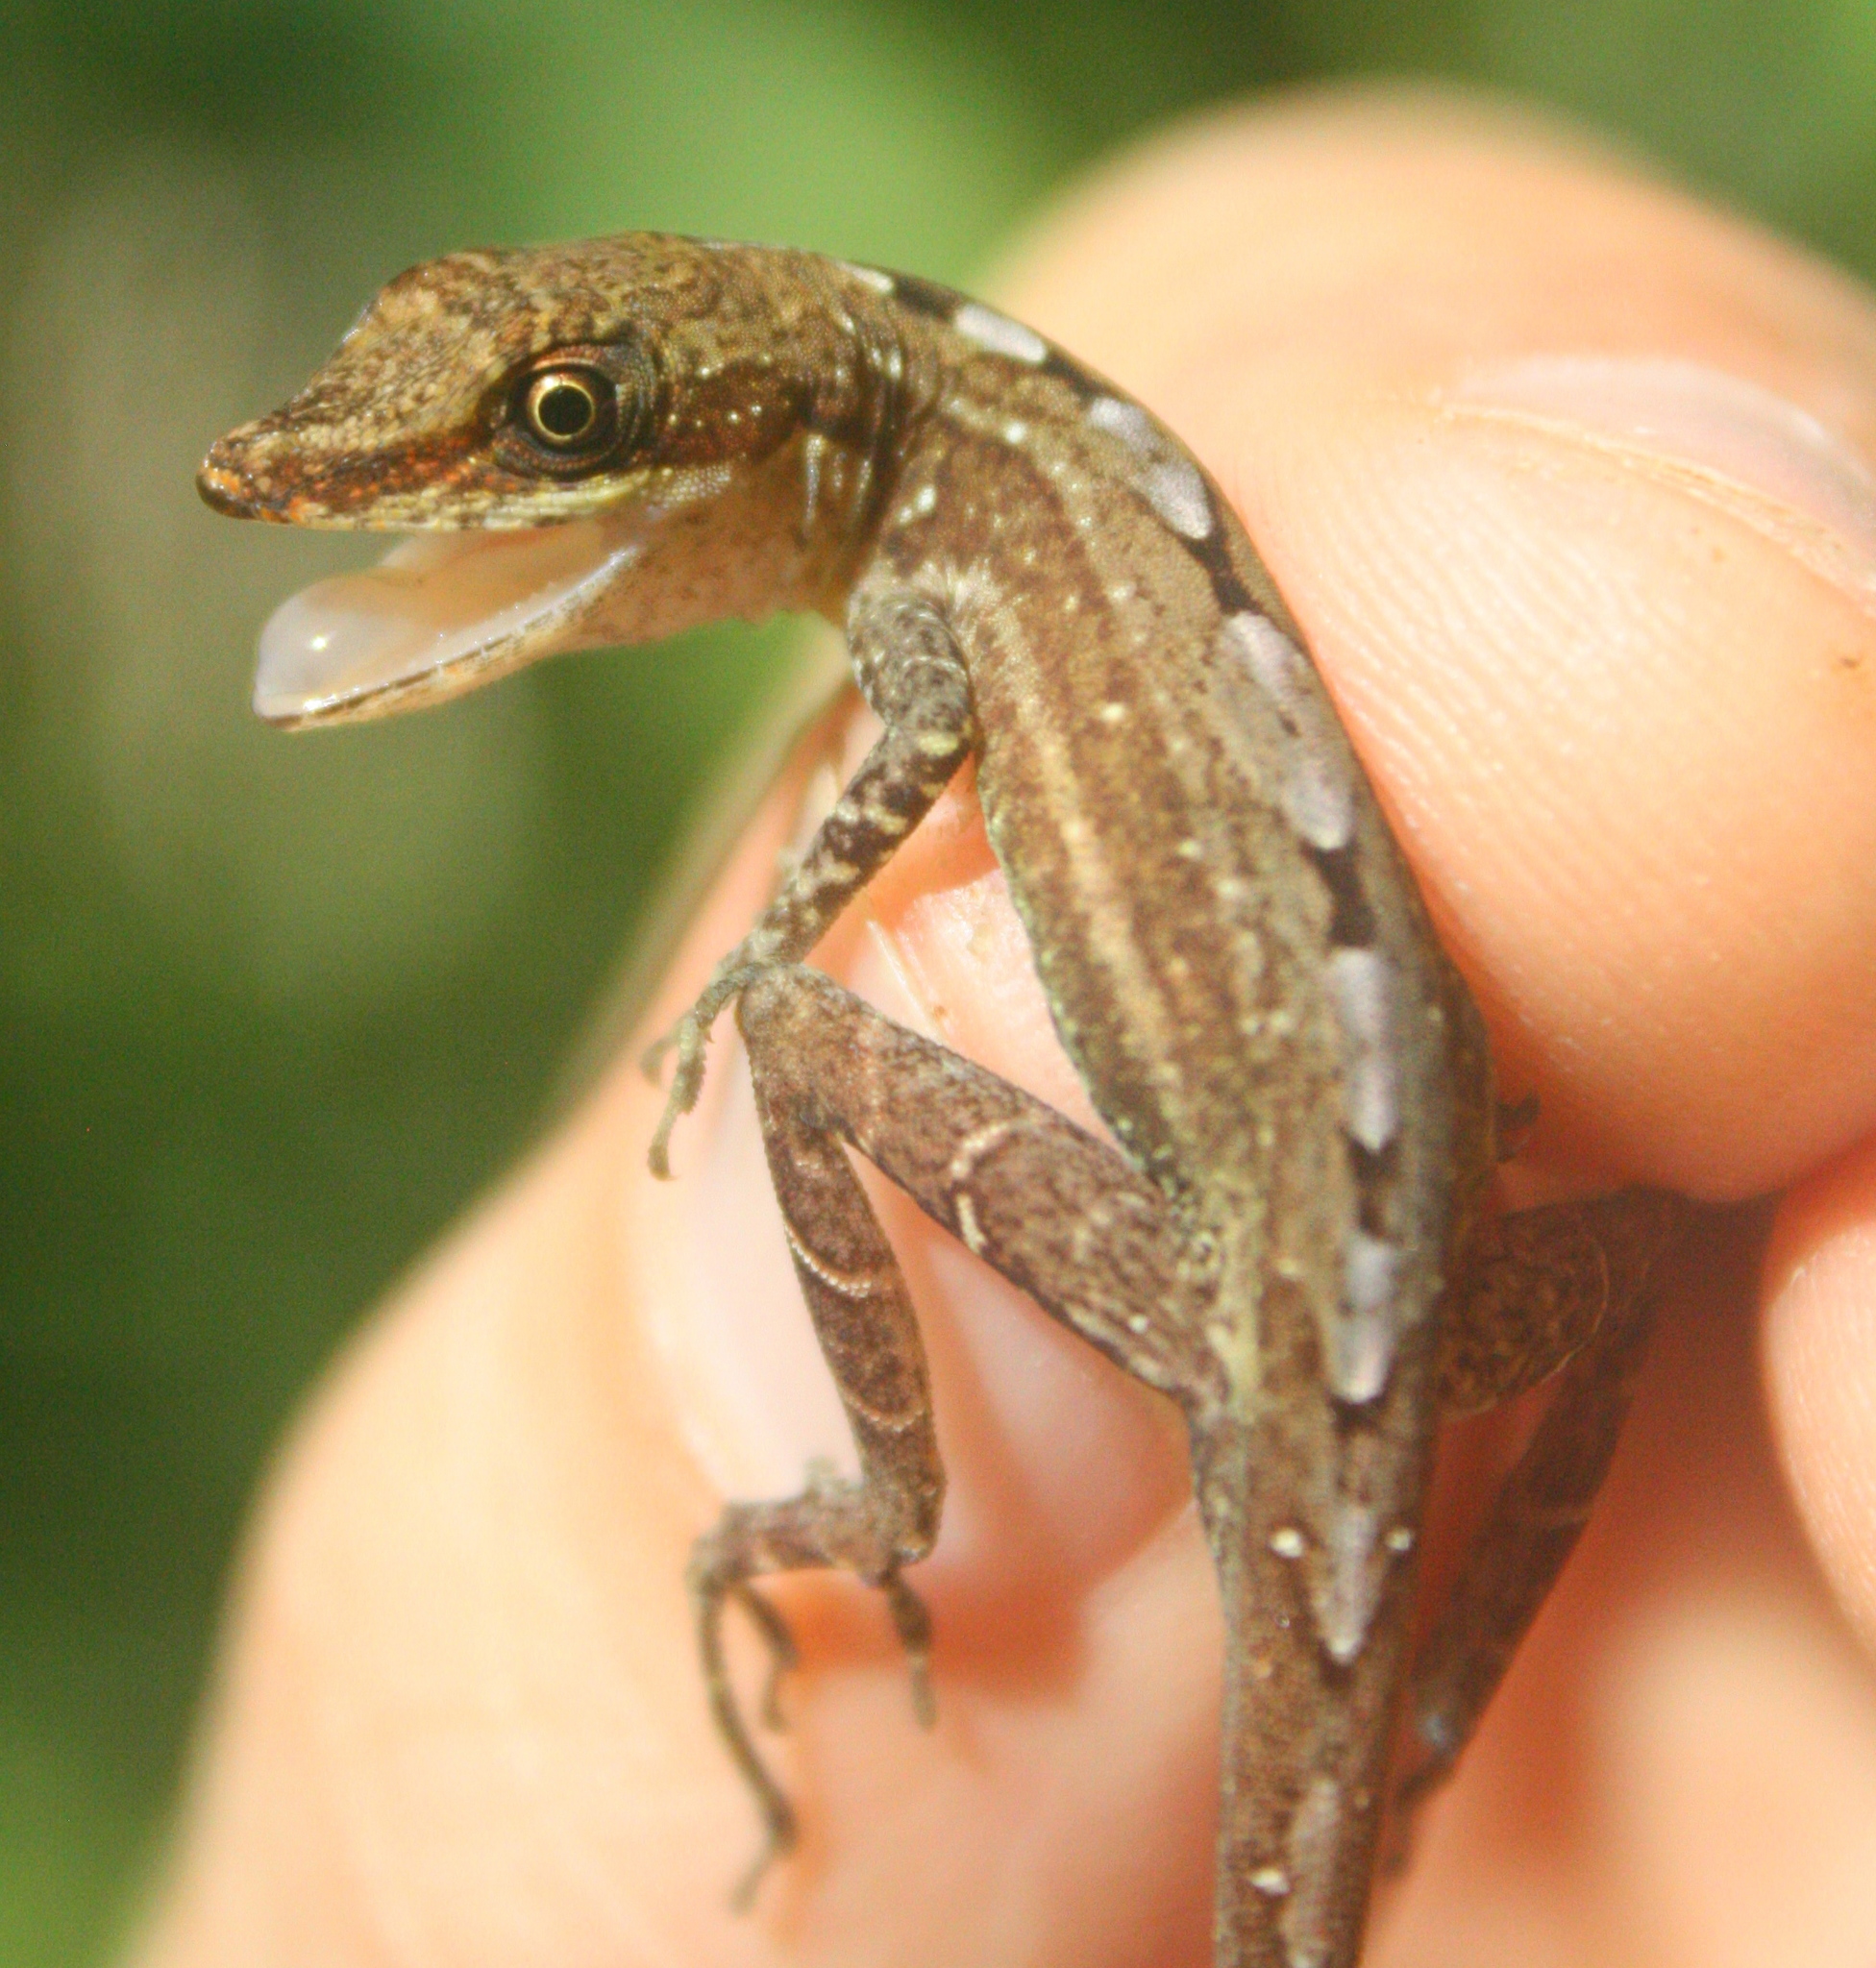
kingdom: Animalia
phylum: Chordata
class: Squamata
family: Dactyloidae
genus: Anolis
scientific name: Anolis cryptolimifrons
